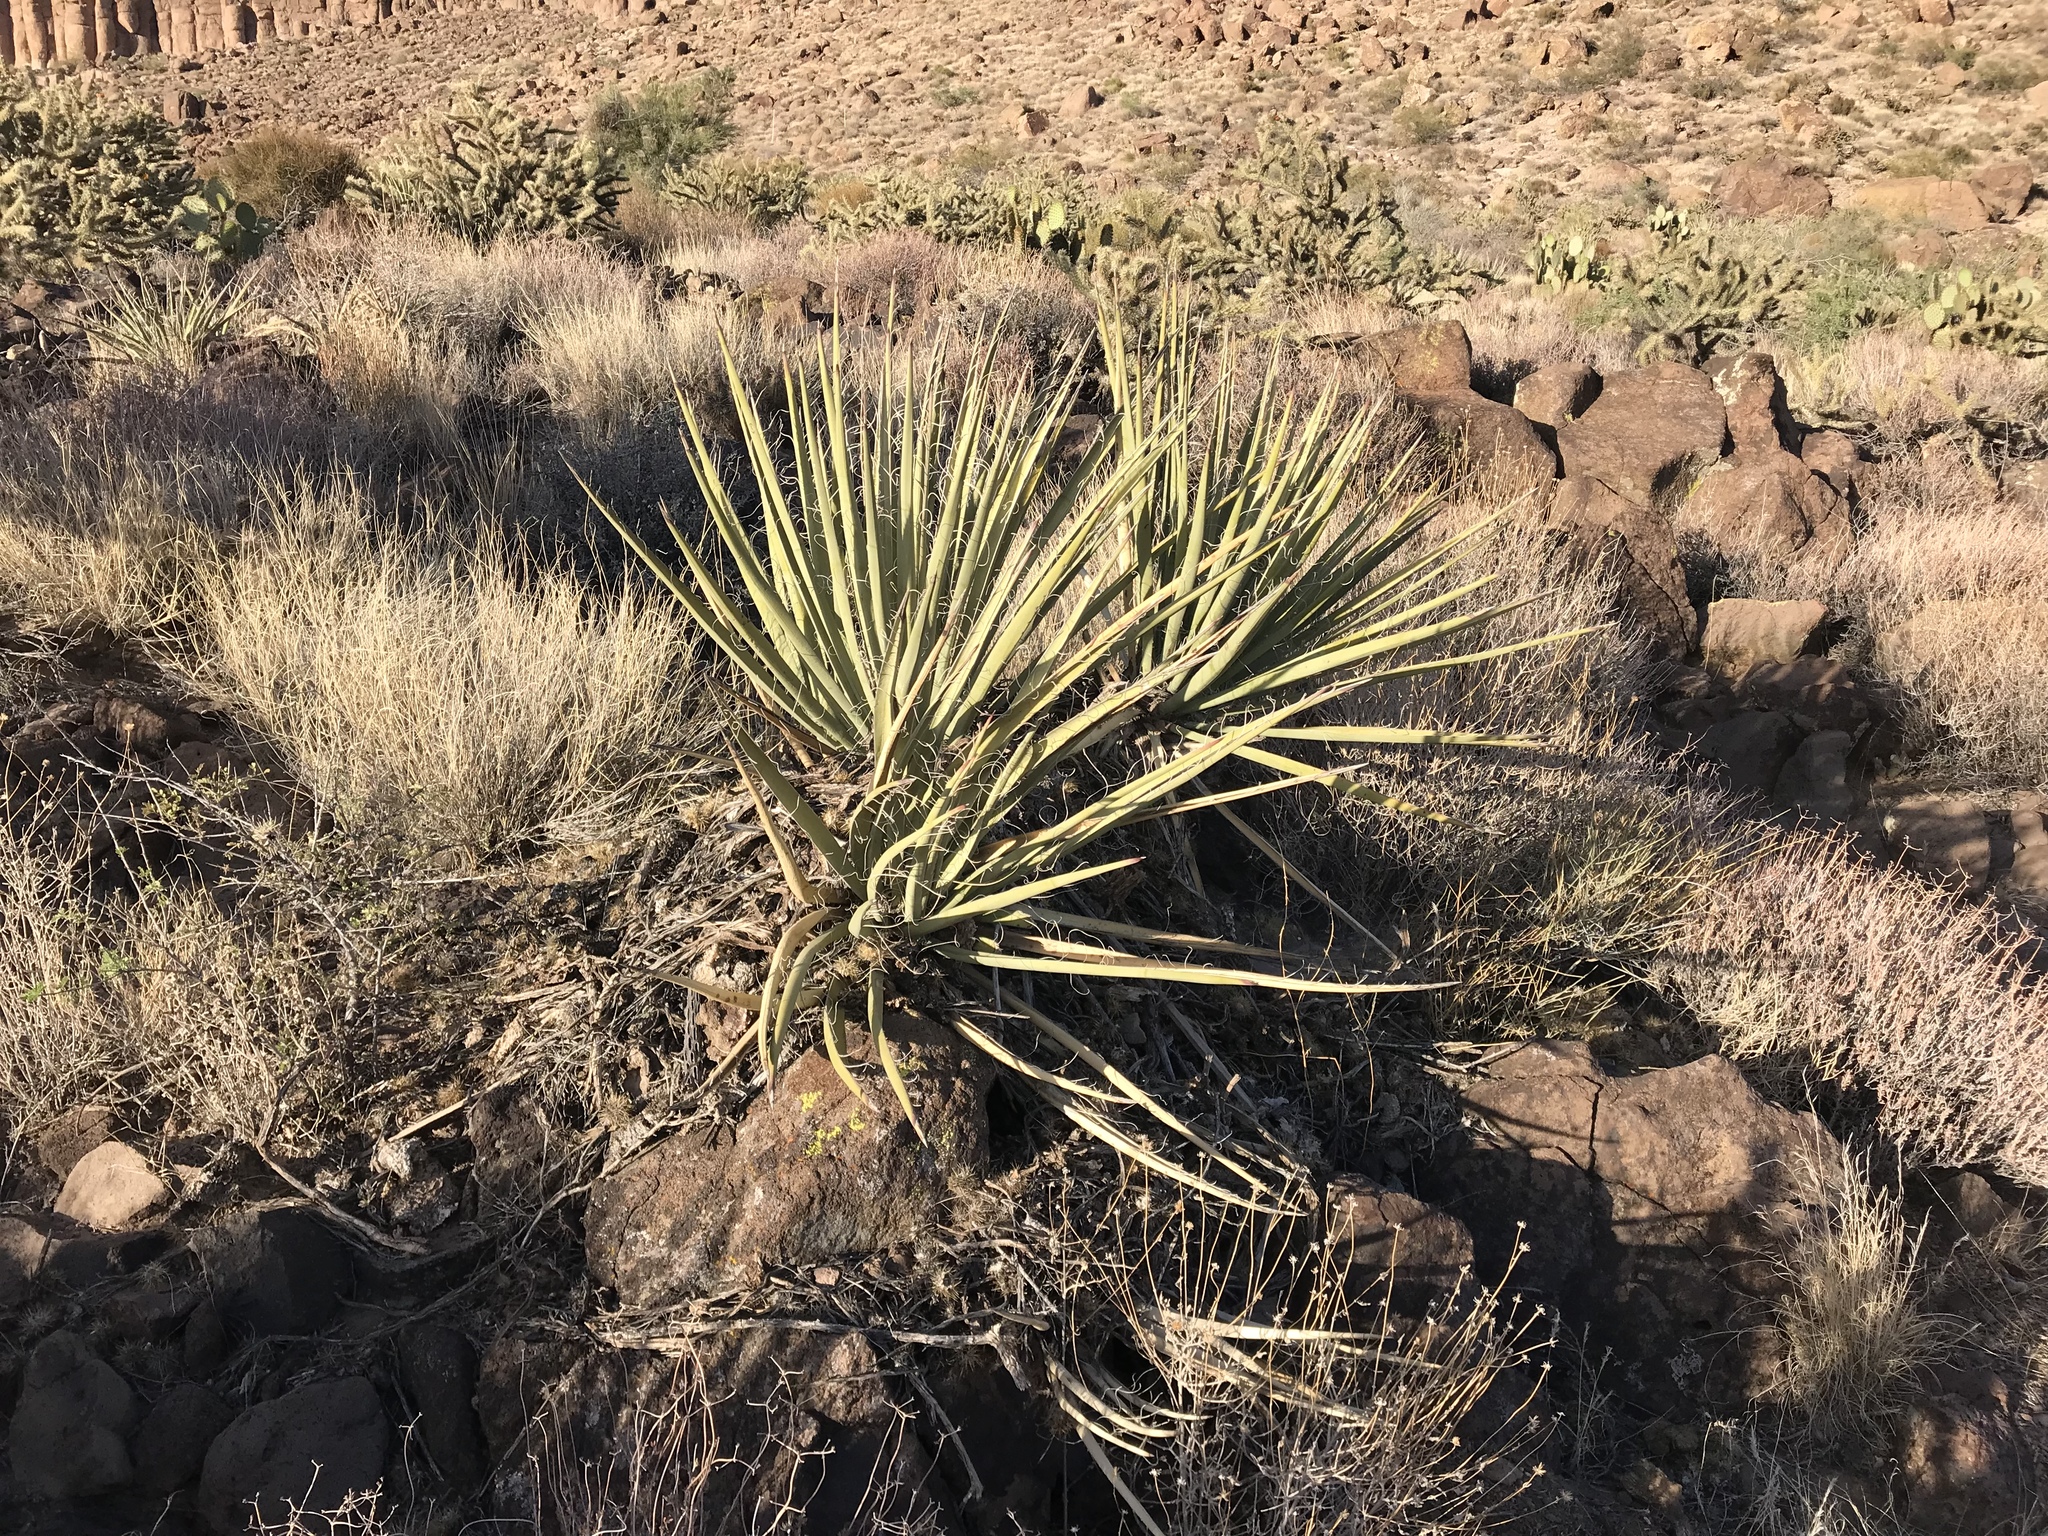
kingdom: Plantae
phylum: Tracheophyta
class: Liliopsida
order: Asparagales
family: Asparagaceae
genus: Yucca
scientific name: Yucca schidigera
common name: Mojave yucca
